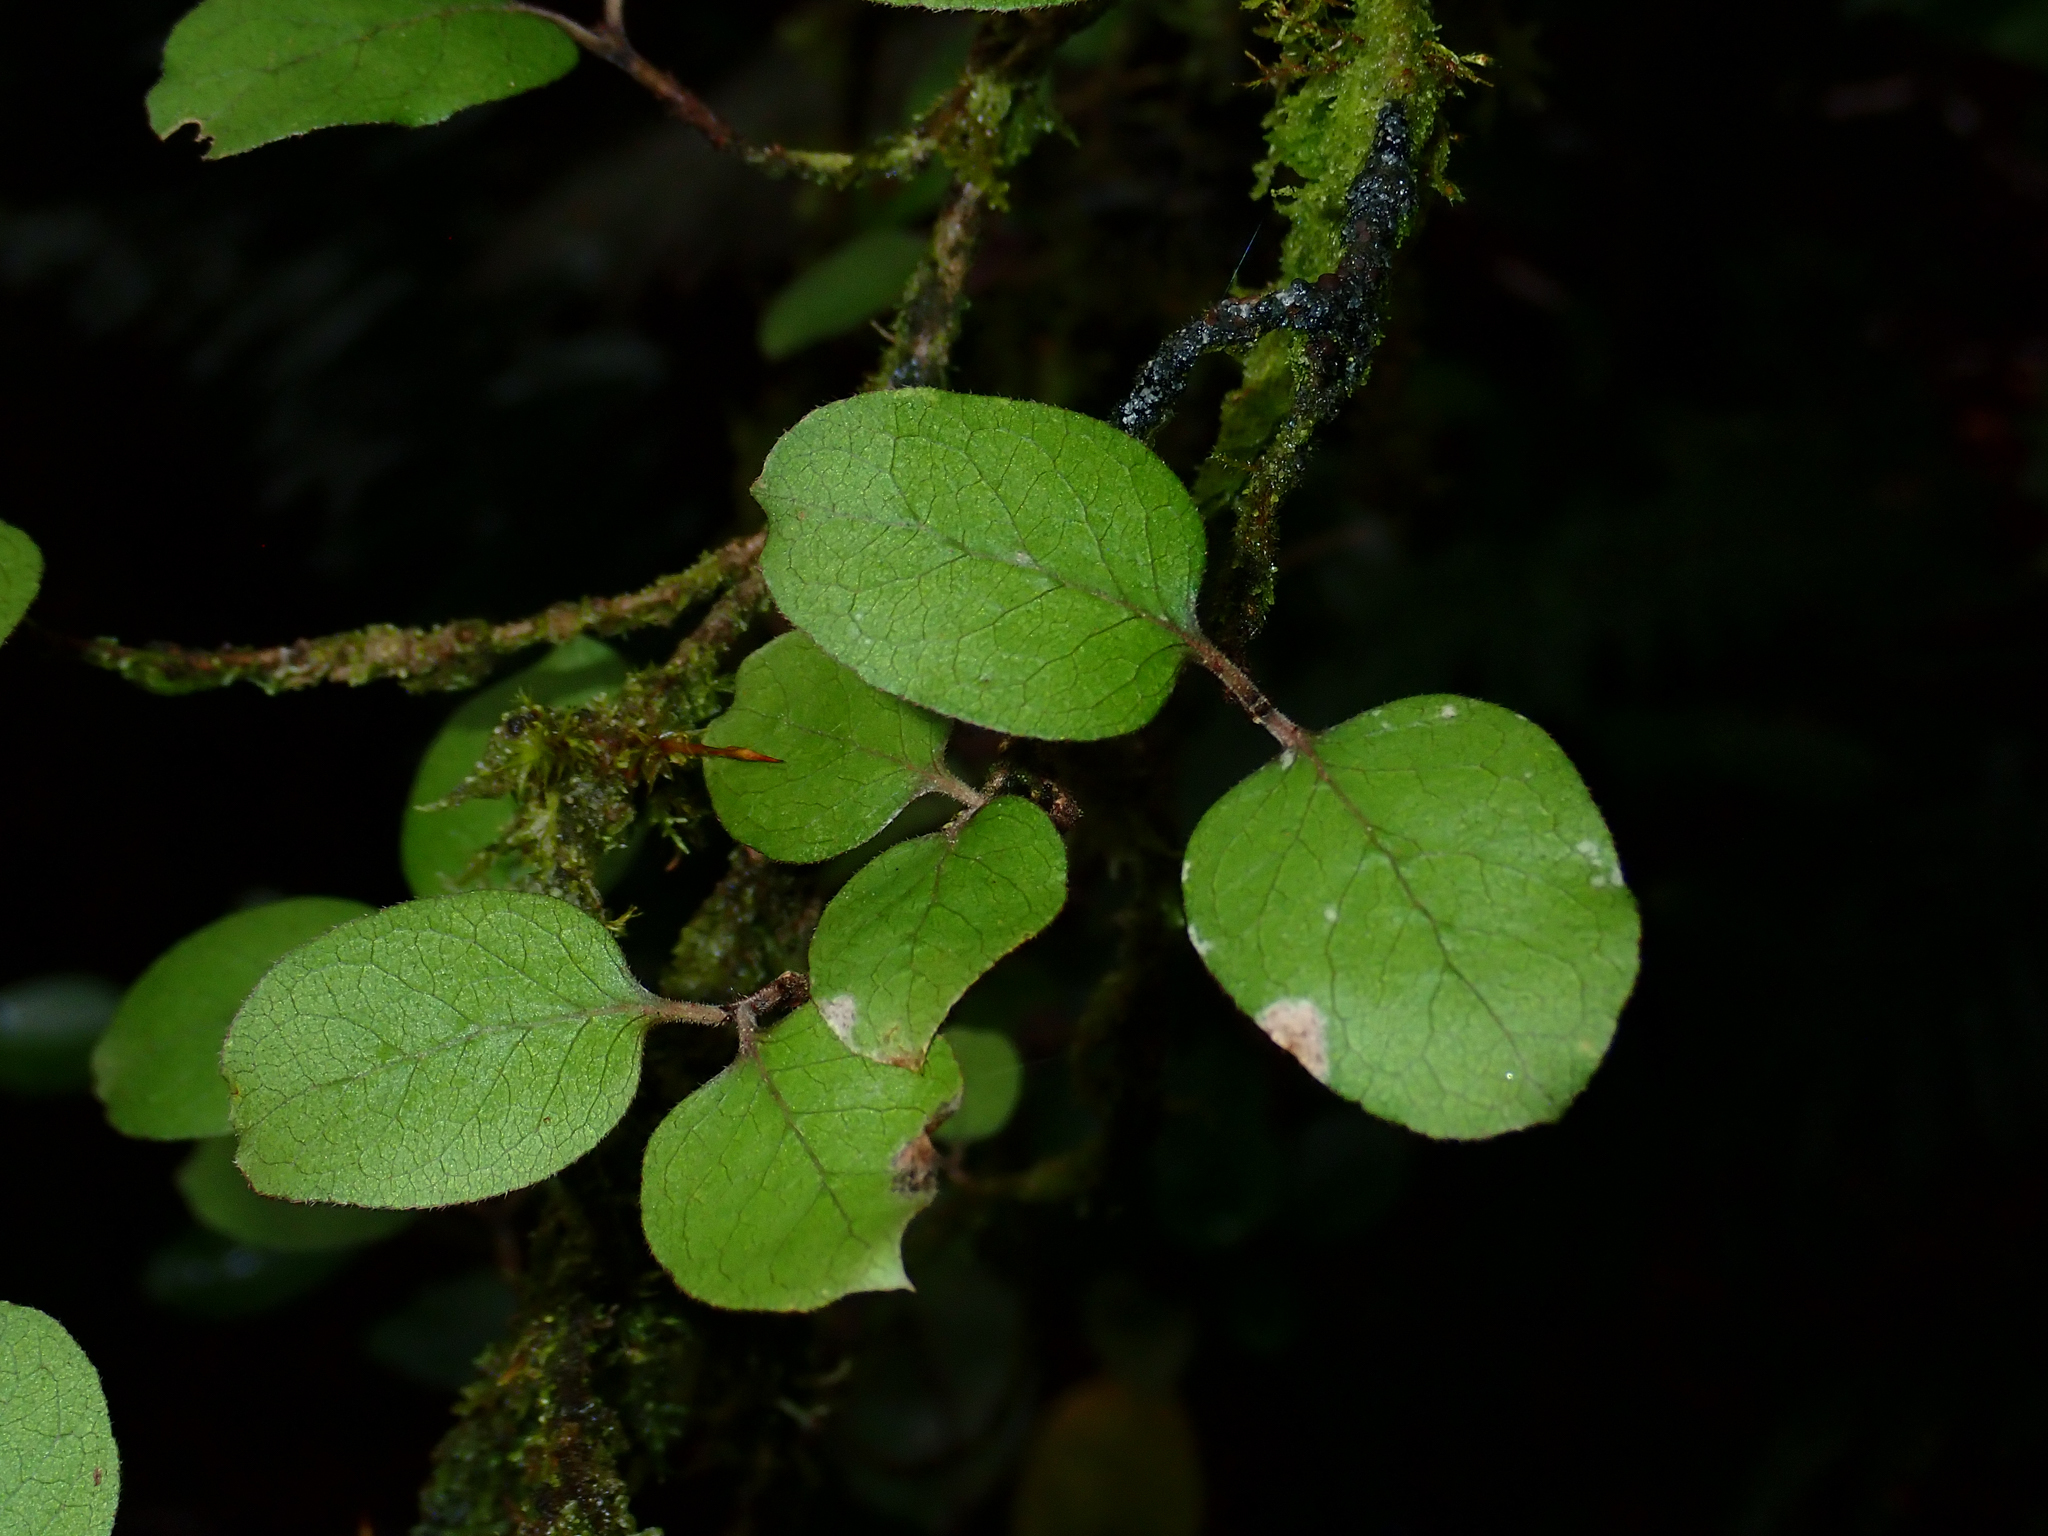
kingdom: Plantae
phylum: Tracheophyta
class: Magnoliopsida
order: Gentianales
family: Rubiaceae
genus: Coprosma
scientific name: Coprosma rotundifolia
